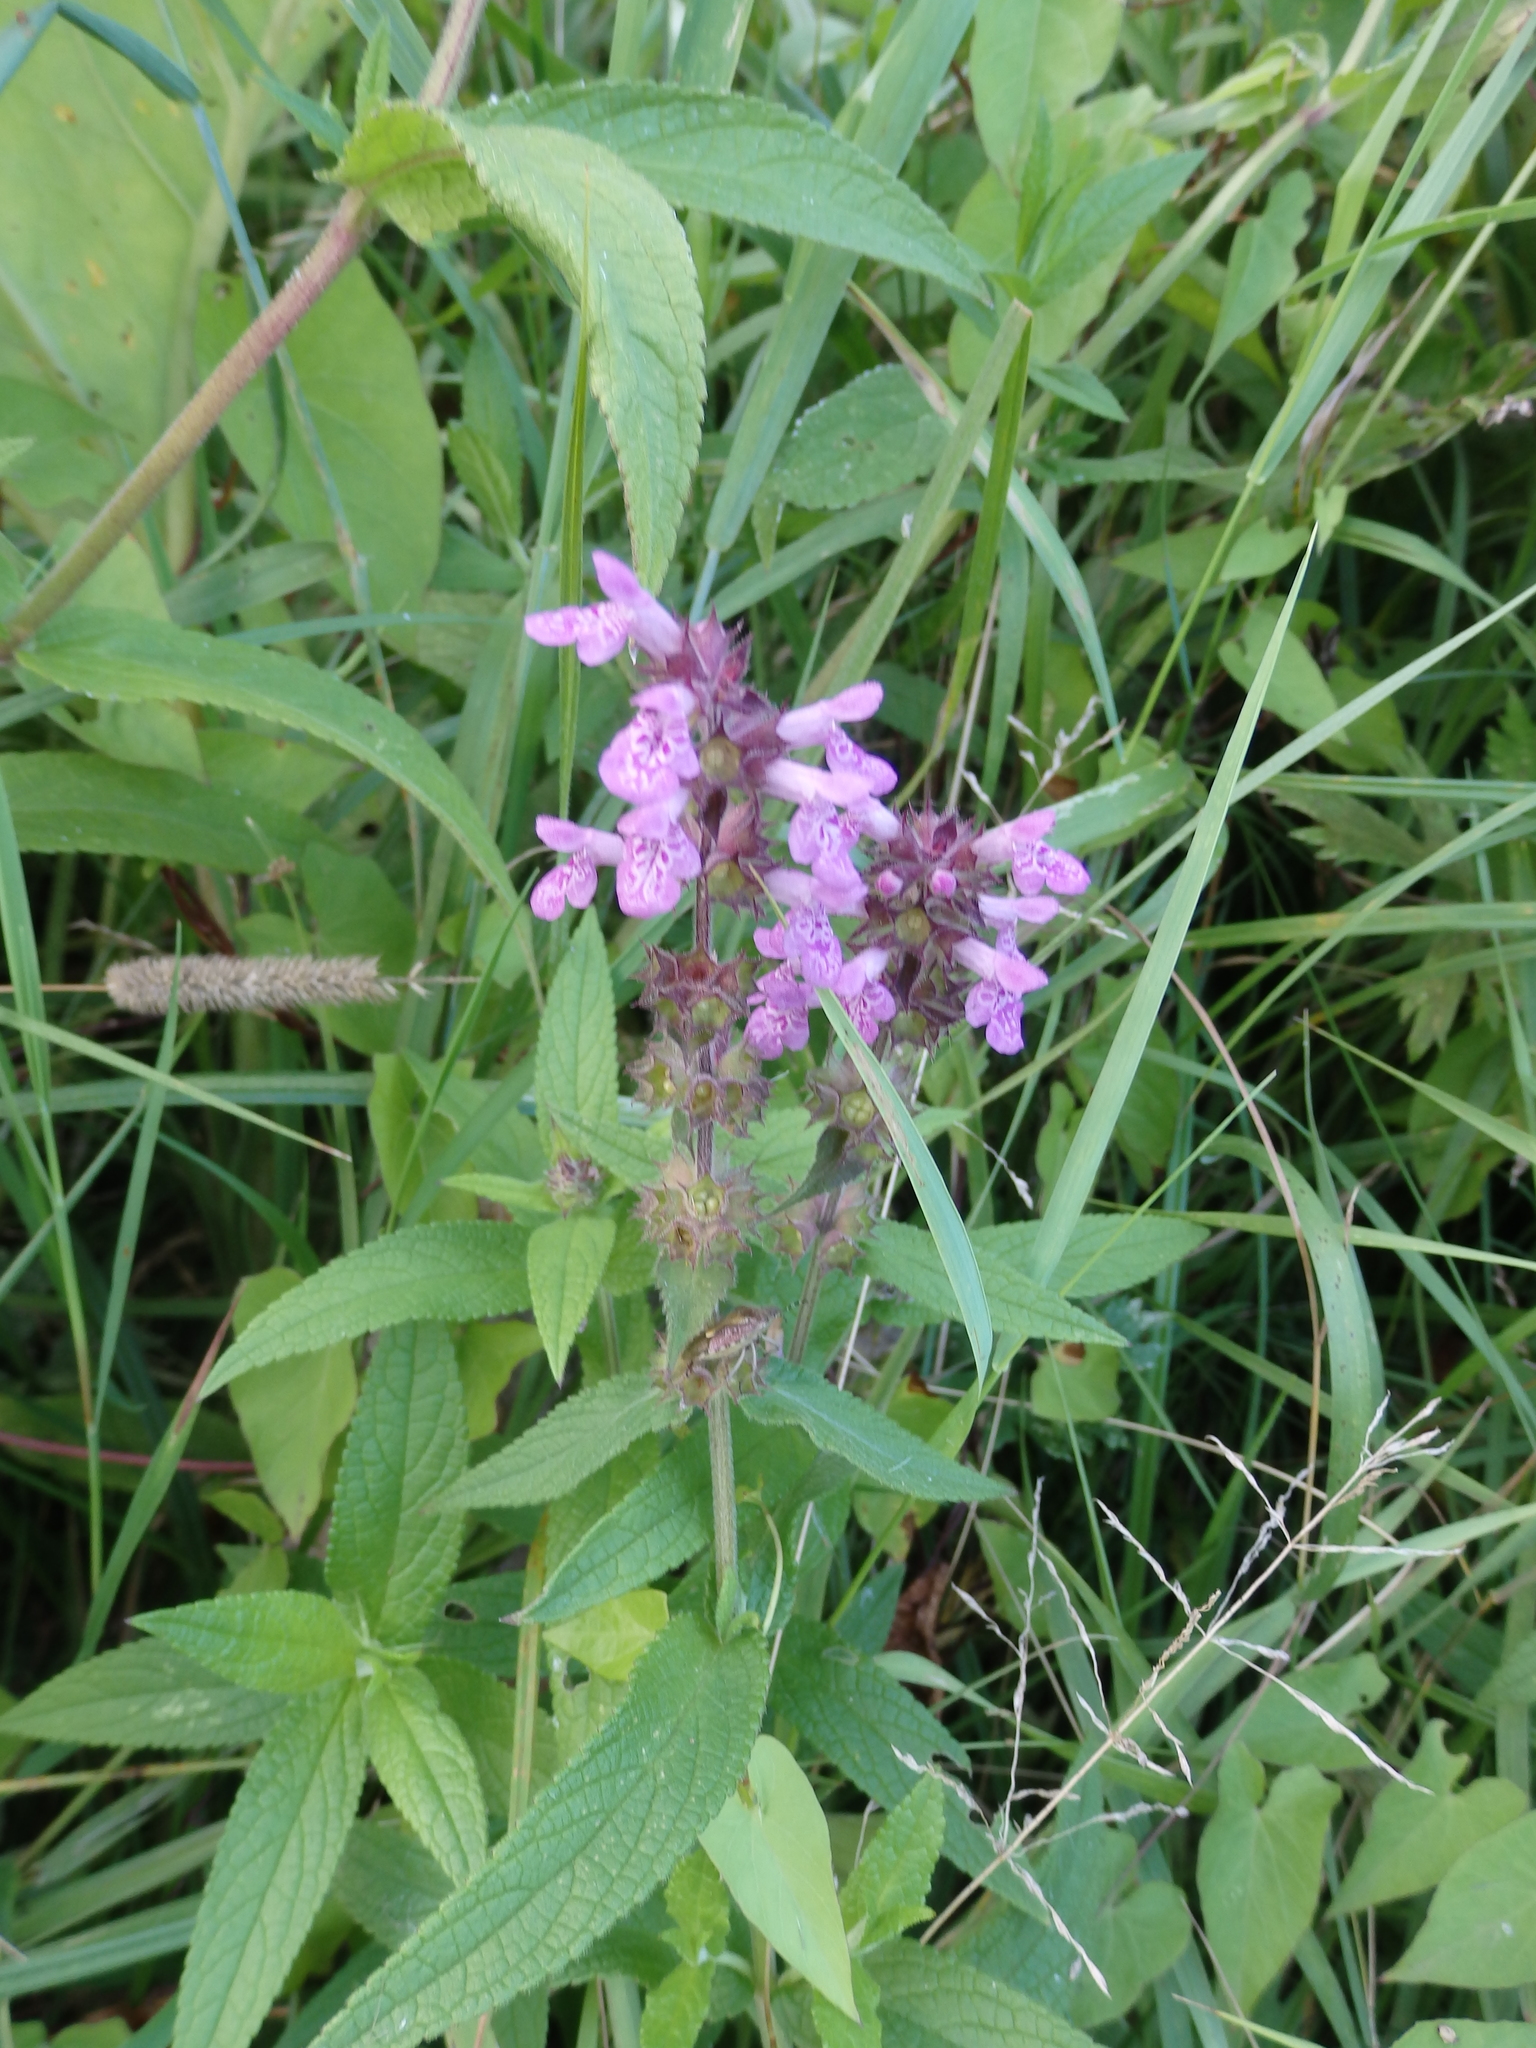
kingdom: Plantae
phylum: Tracheophyta
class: Magnoliopsida
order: Lamiales
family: Lamiaceae
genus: Stachys
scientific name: Stachys palustris
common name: Marsh woundwort
